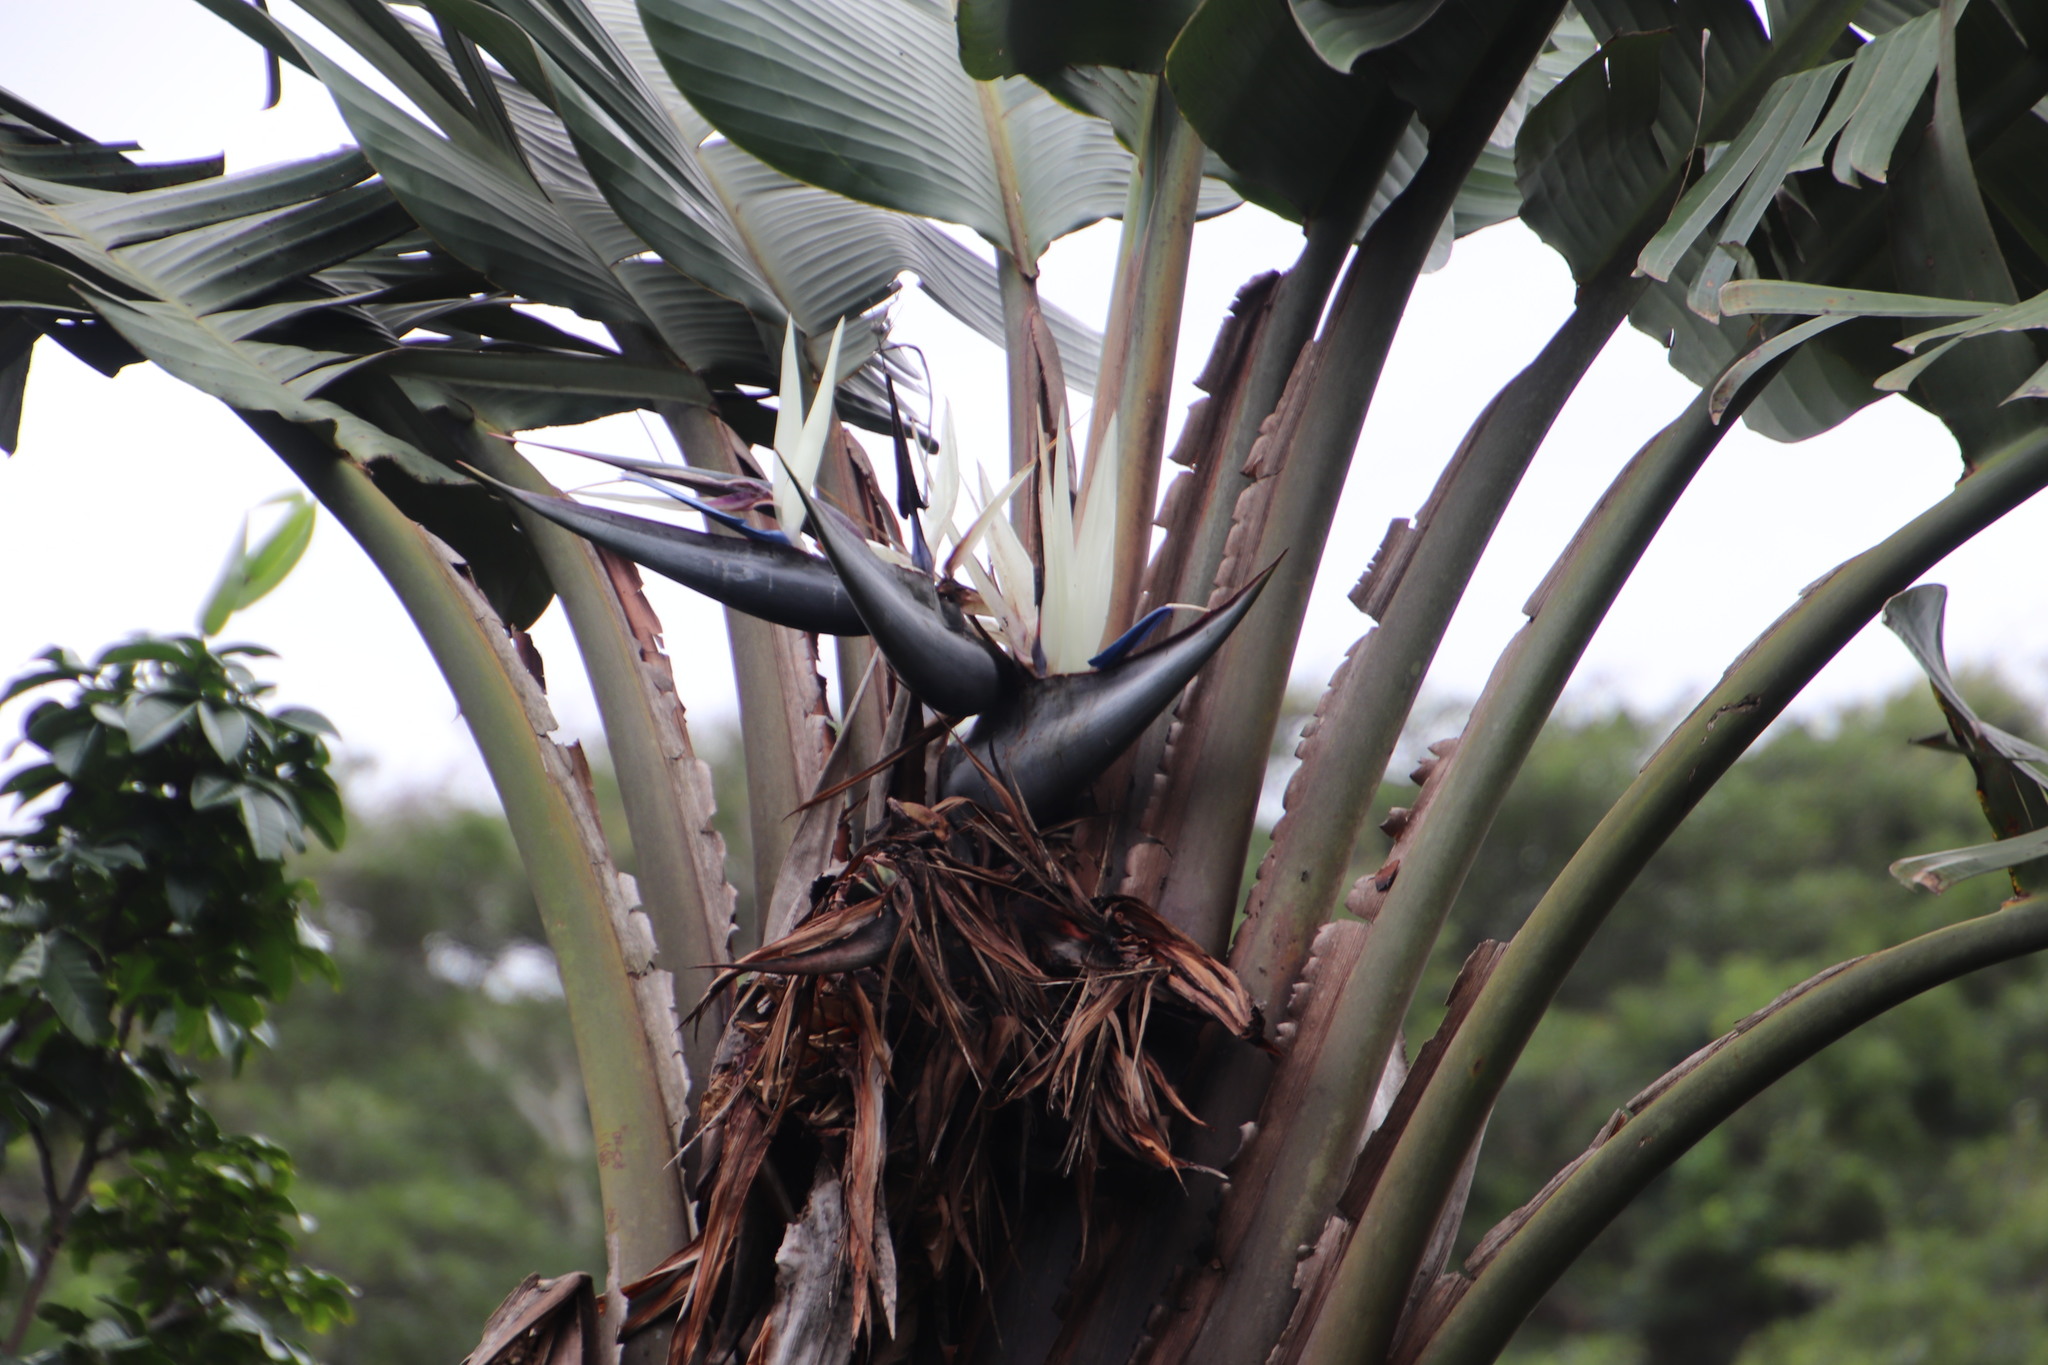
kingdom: Plantae
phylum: Tracheophyta
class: Liliopsida
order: Zingiberales
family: Strelitziaceae
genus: Strelitzia
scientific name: Strelitzia nicolai
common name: Bird-of-paradise tree
